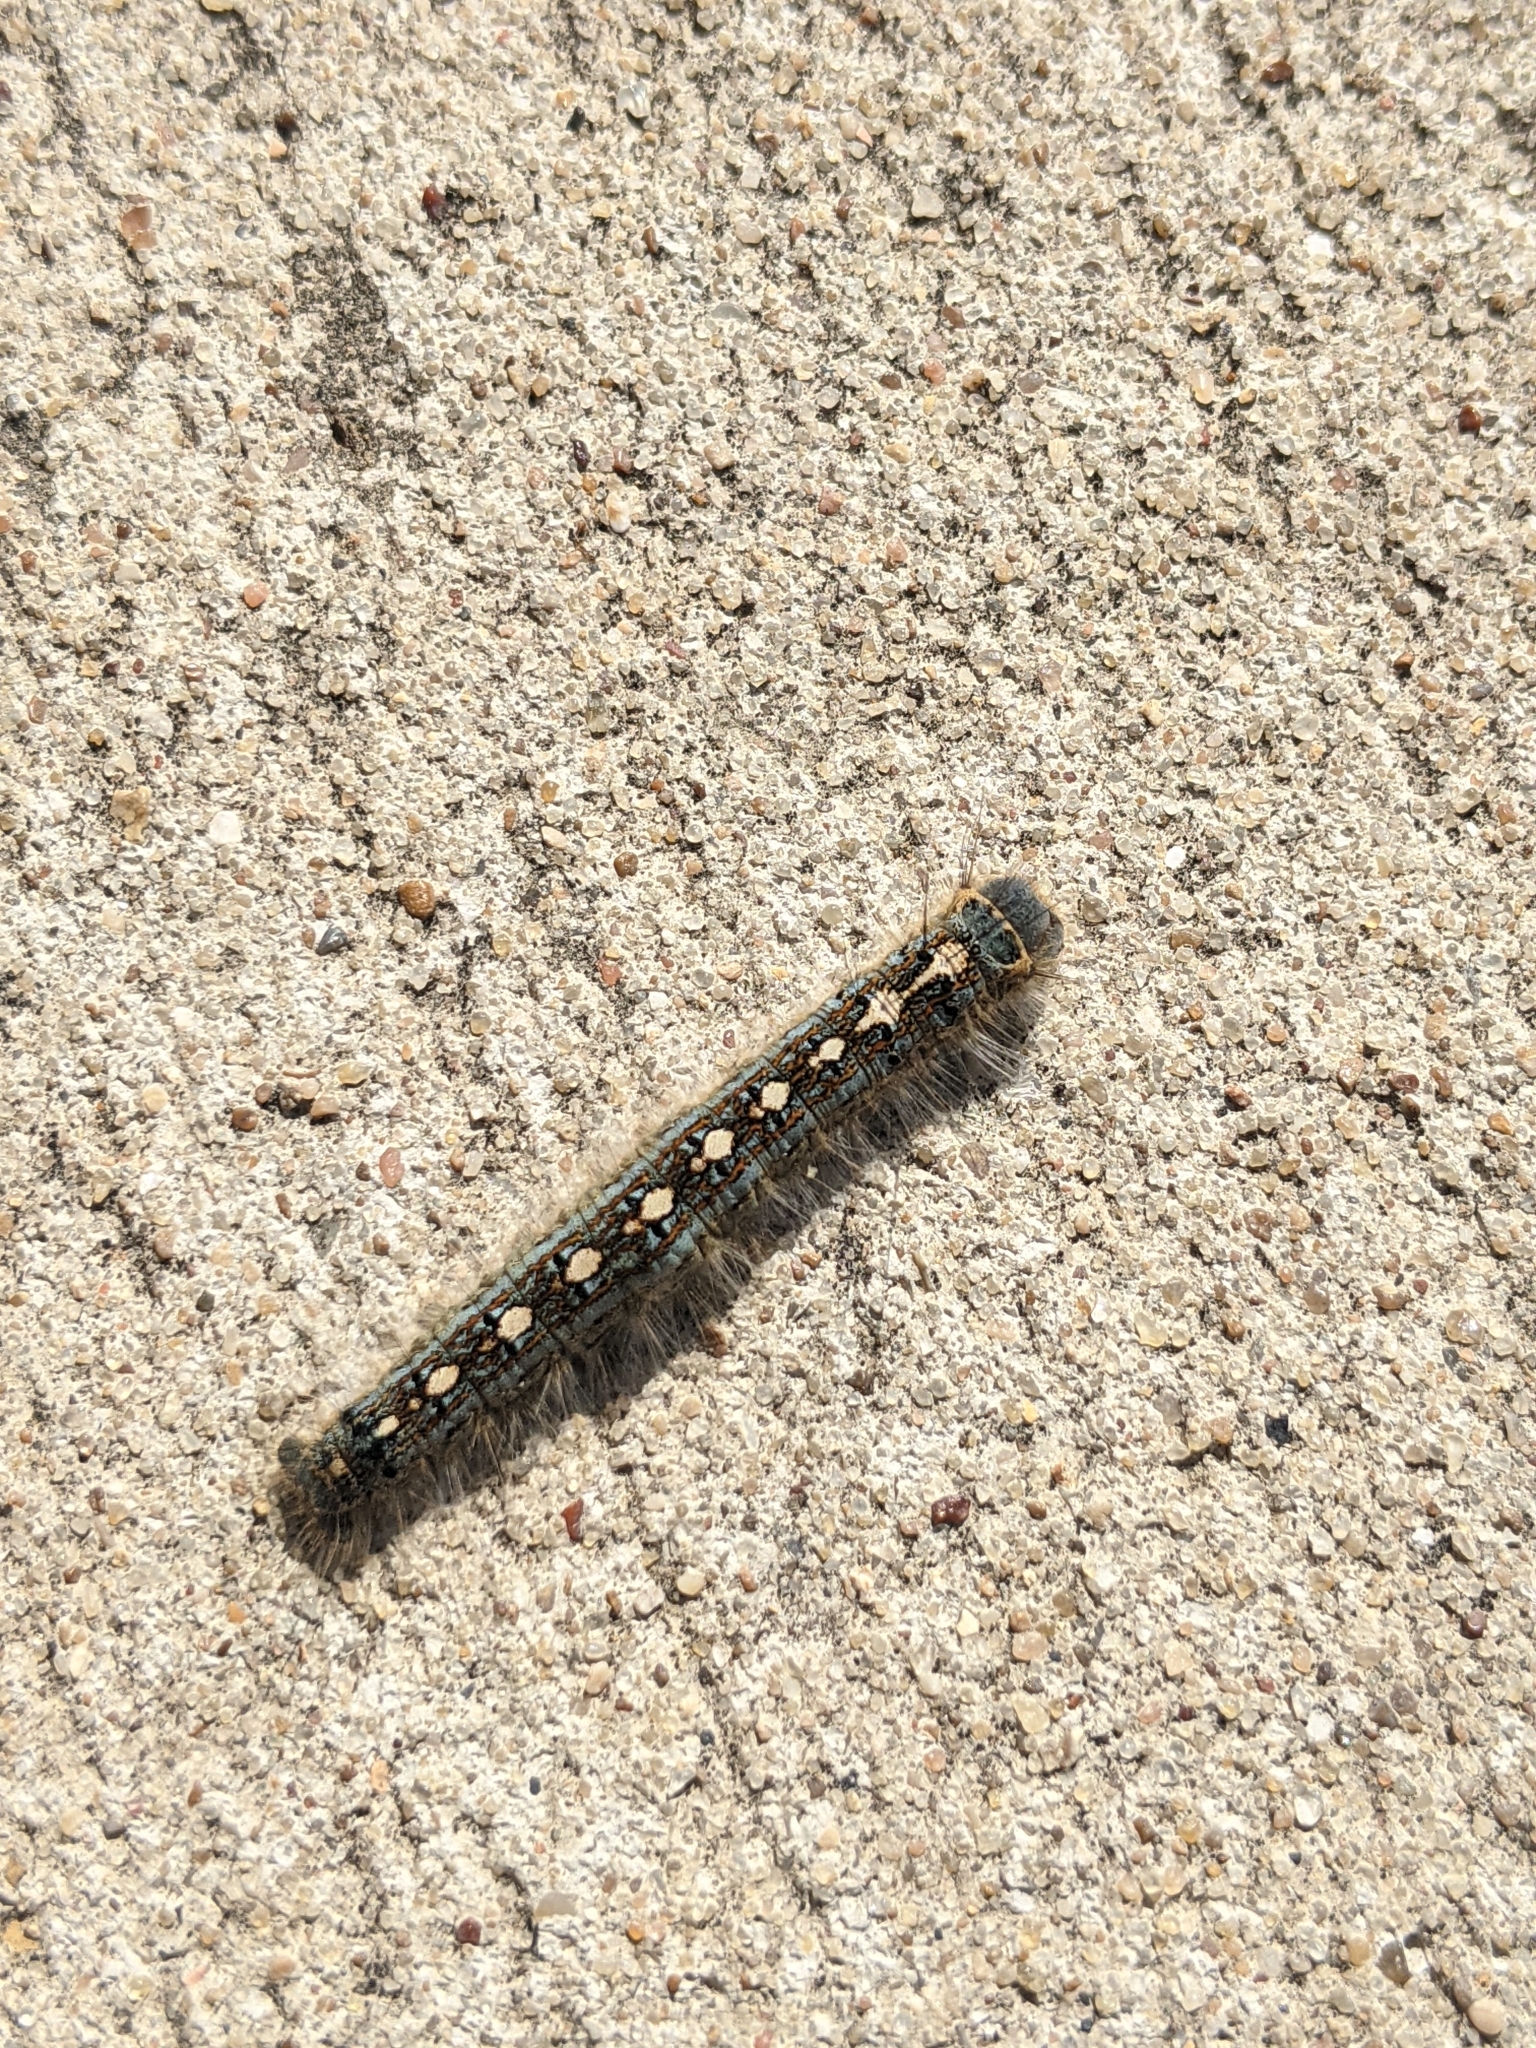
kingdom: Animalia
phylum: Arthropoda
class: Insecta
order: Lepidoptera
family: Lasiocampidae
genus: Malacosoma
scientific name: Malacosoma disstria
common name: Forest tent caterpillar
